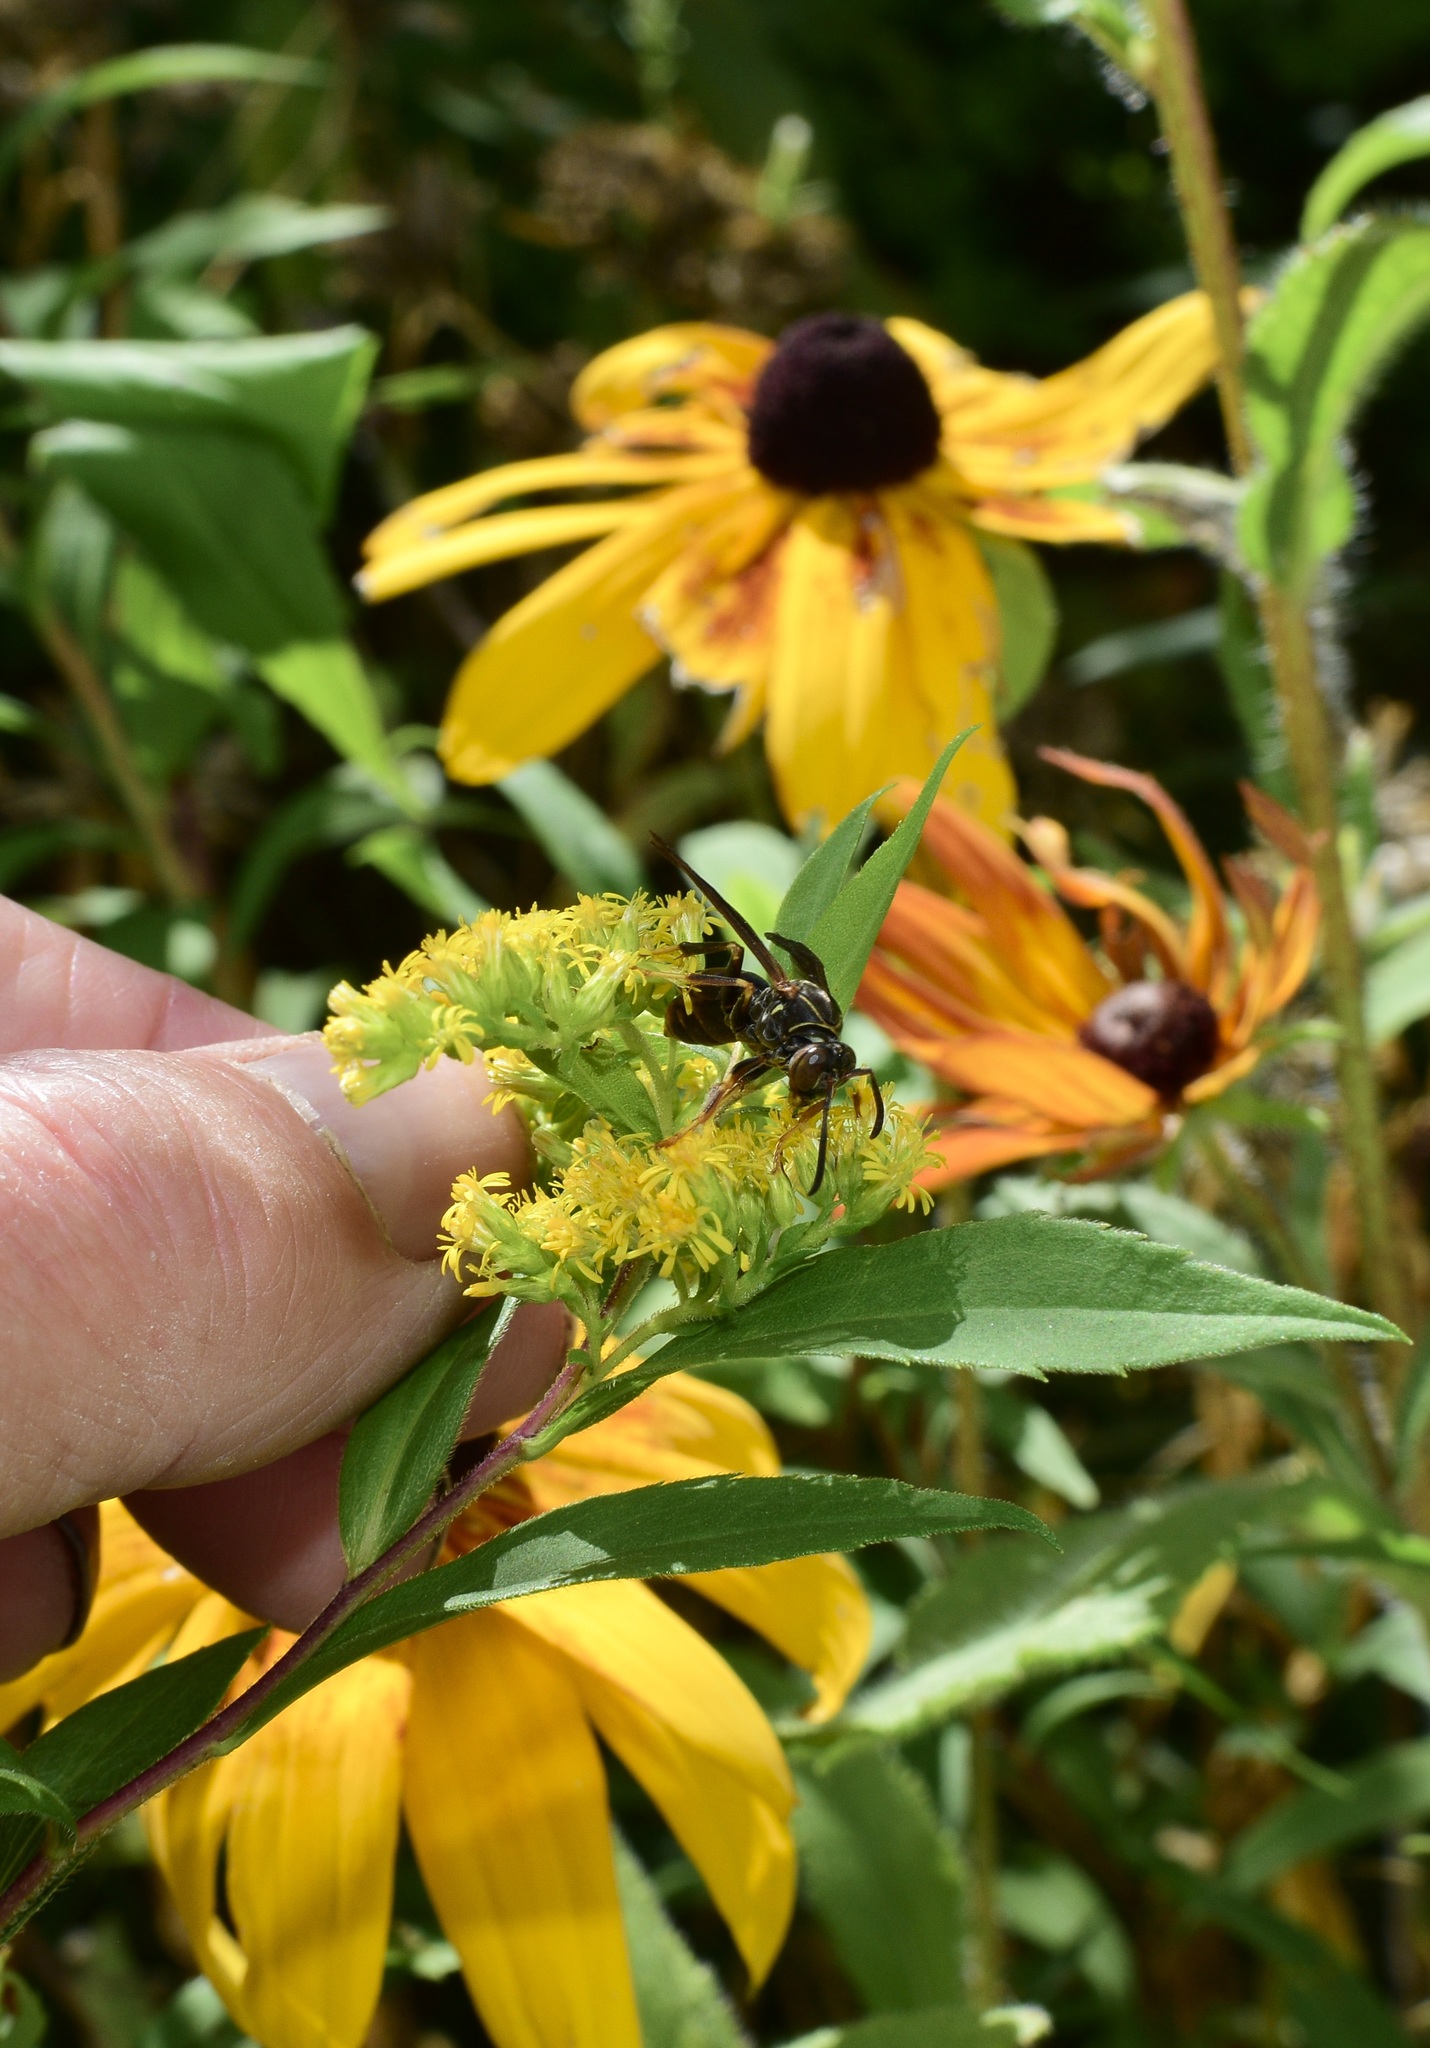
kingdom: Animalia
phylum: Arthropoda
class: Insecta
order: Hymenoptera
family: Eumenidae
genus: Polistes
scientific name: Polistes fuscatus
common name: Dark paper wasp
